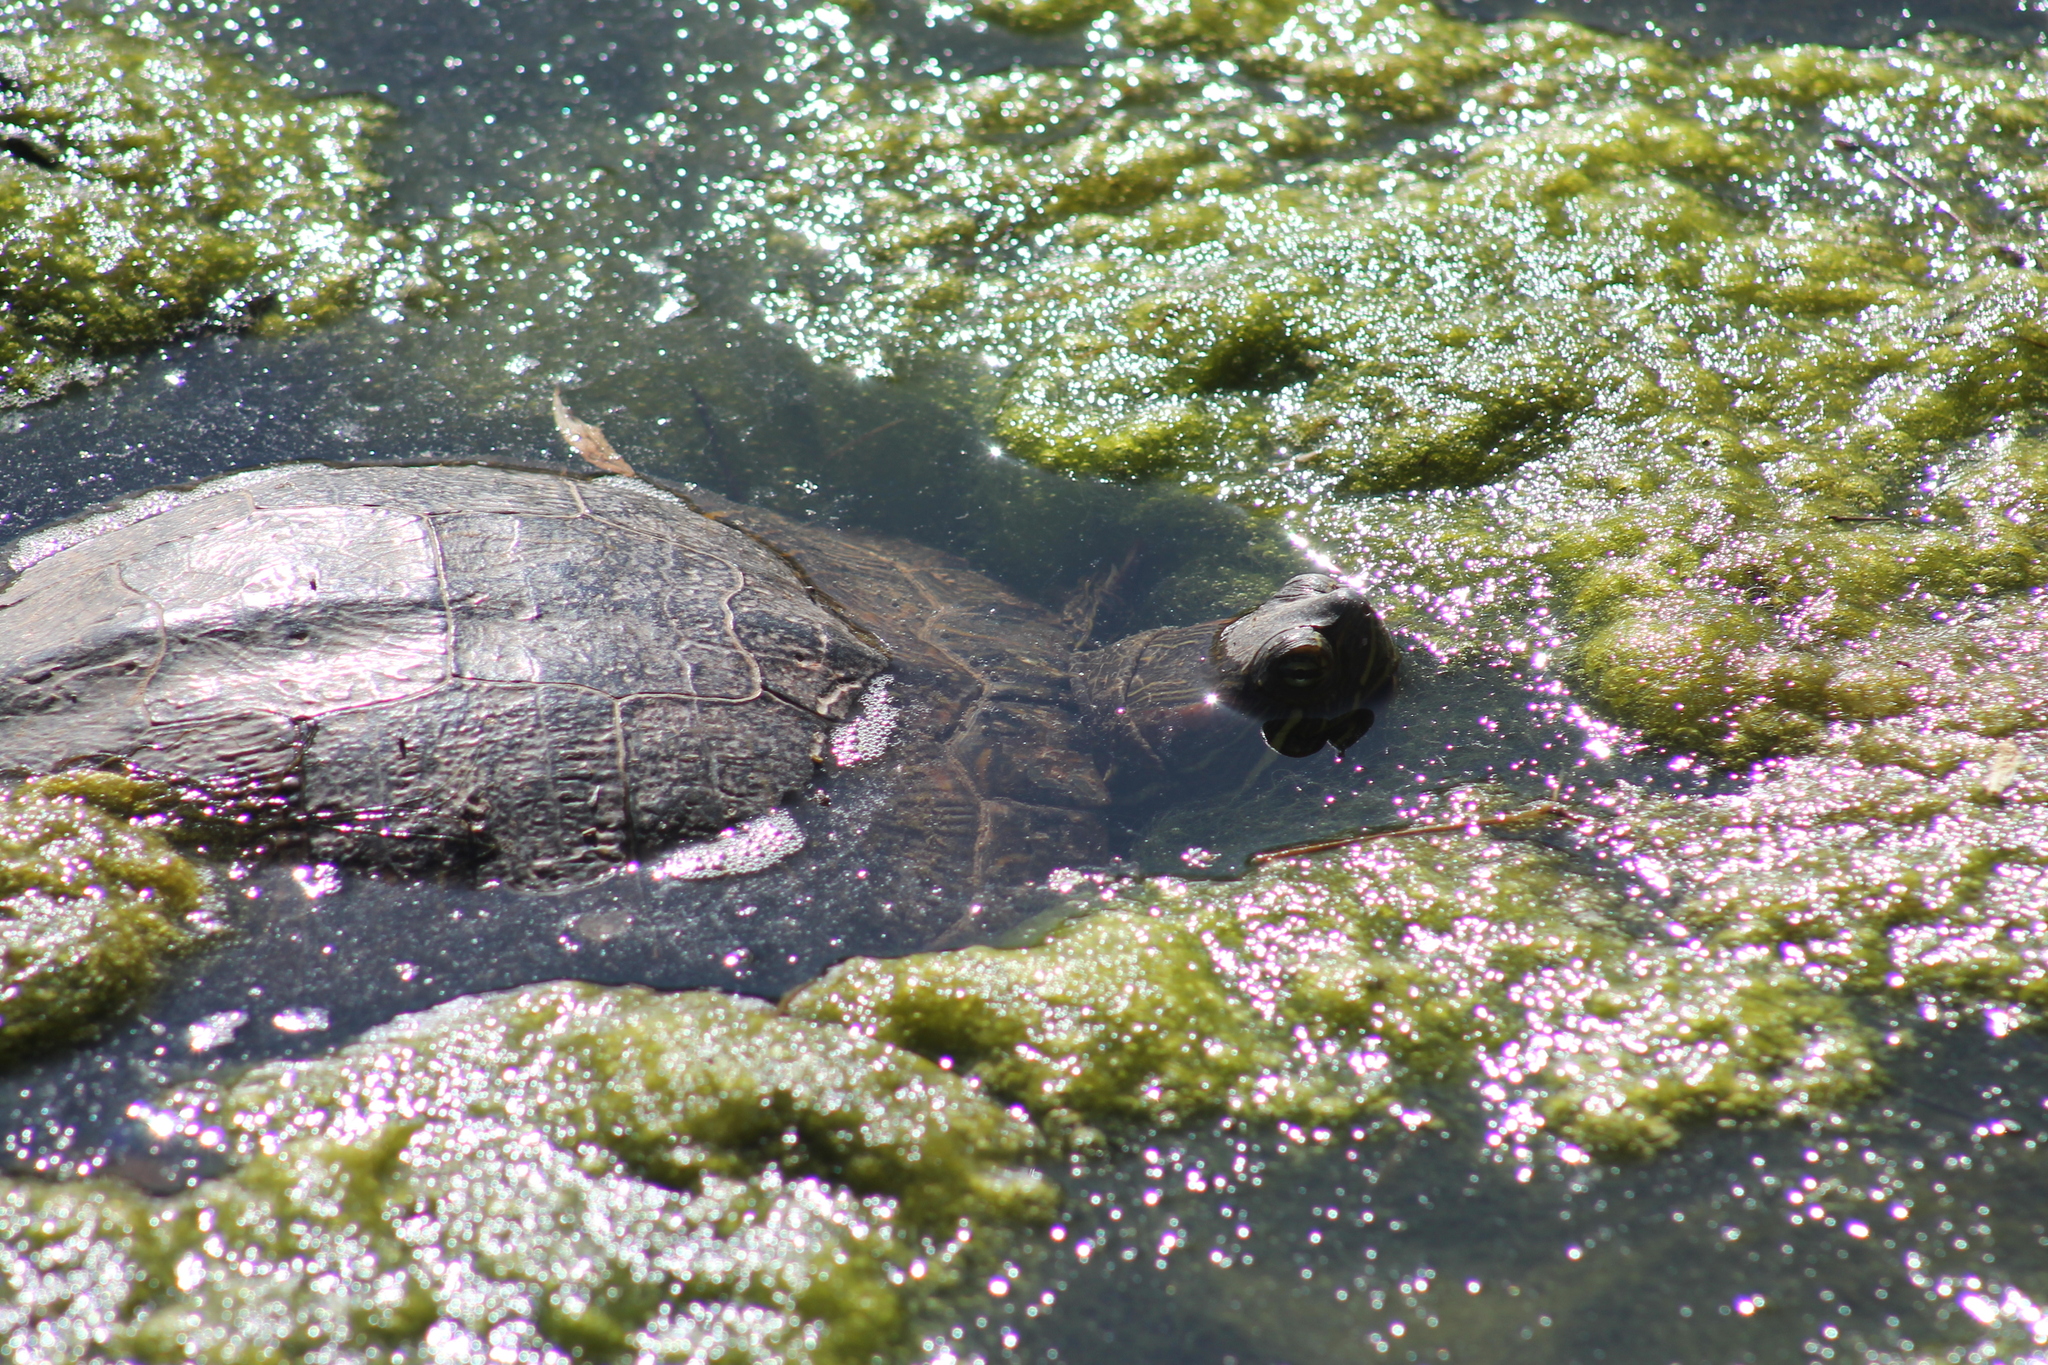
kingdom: Animalia
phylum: Chordata
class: Testudines
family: Emydidae
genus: Trachemys
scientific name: Trachemys scripta
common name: Slider
